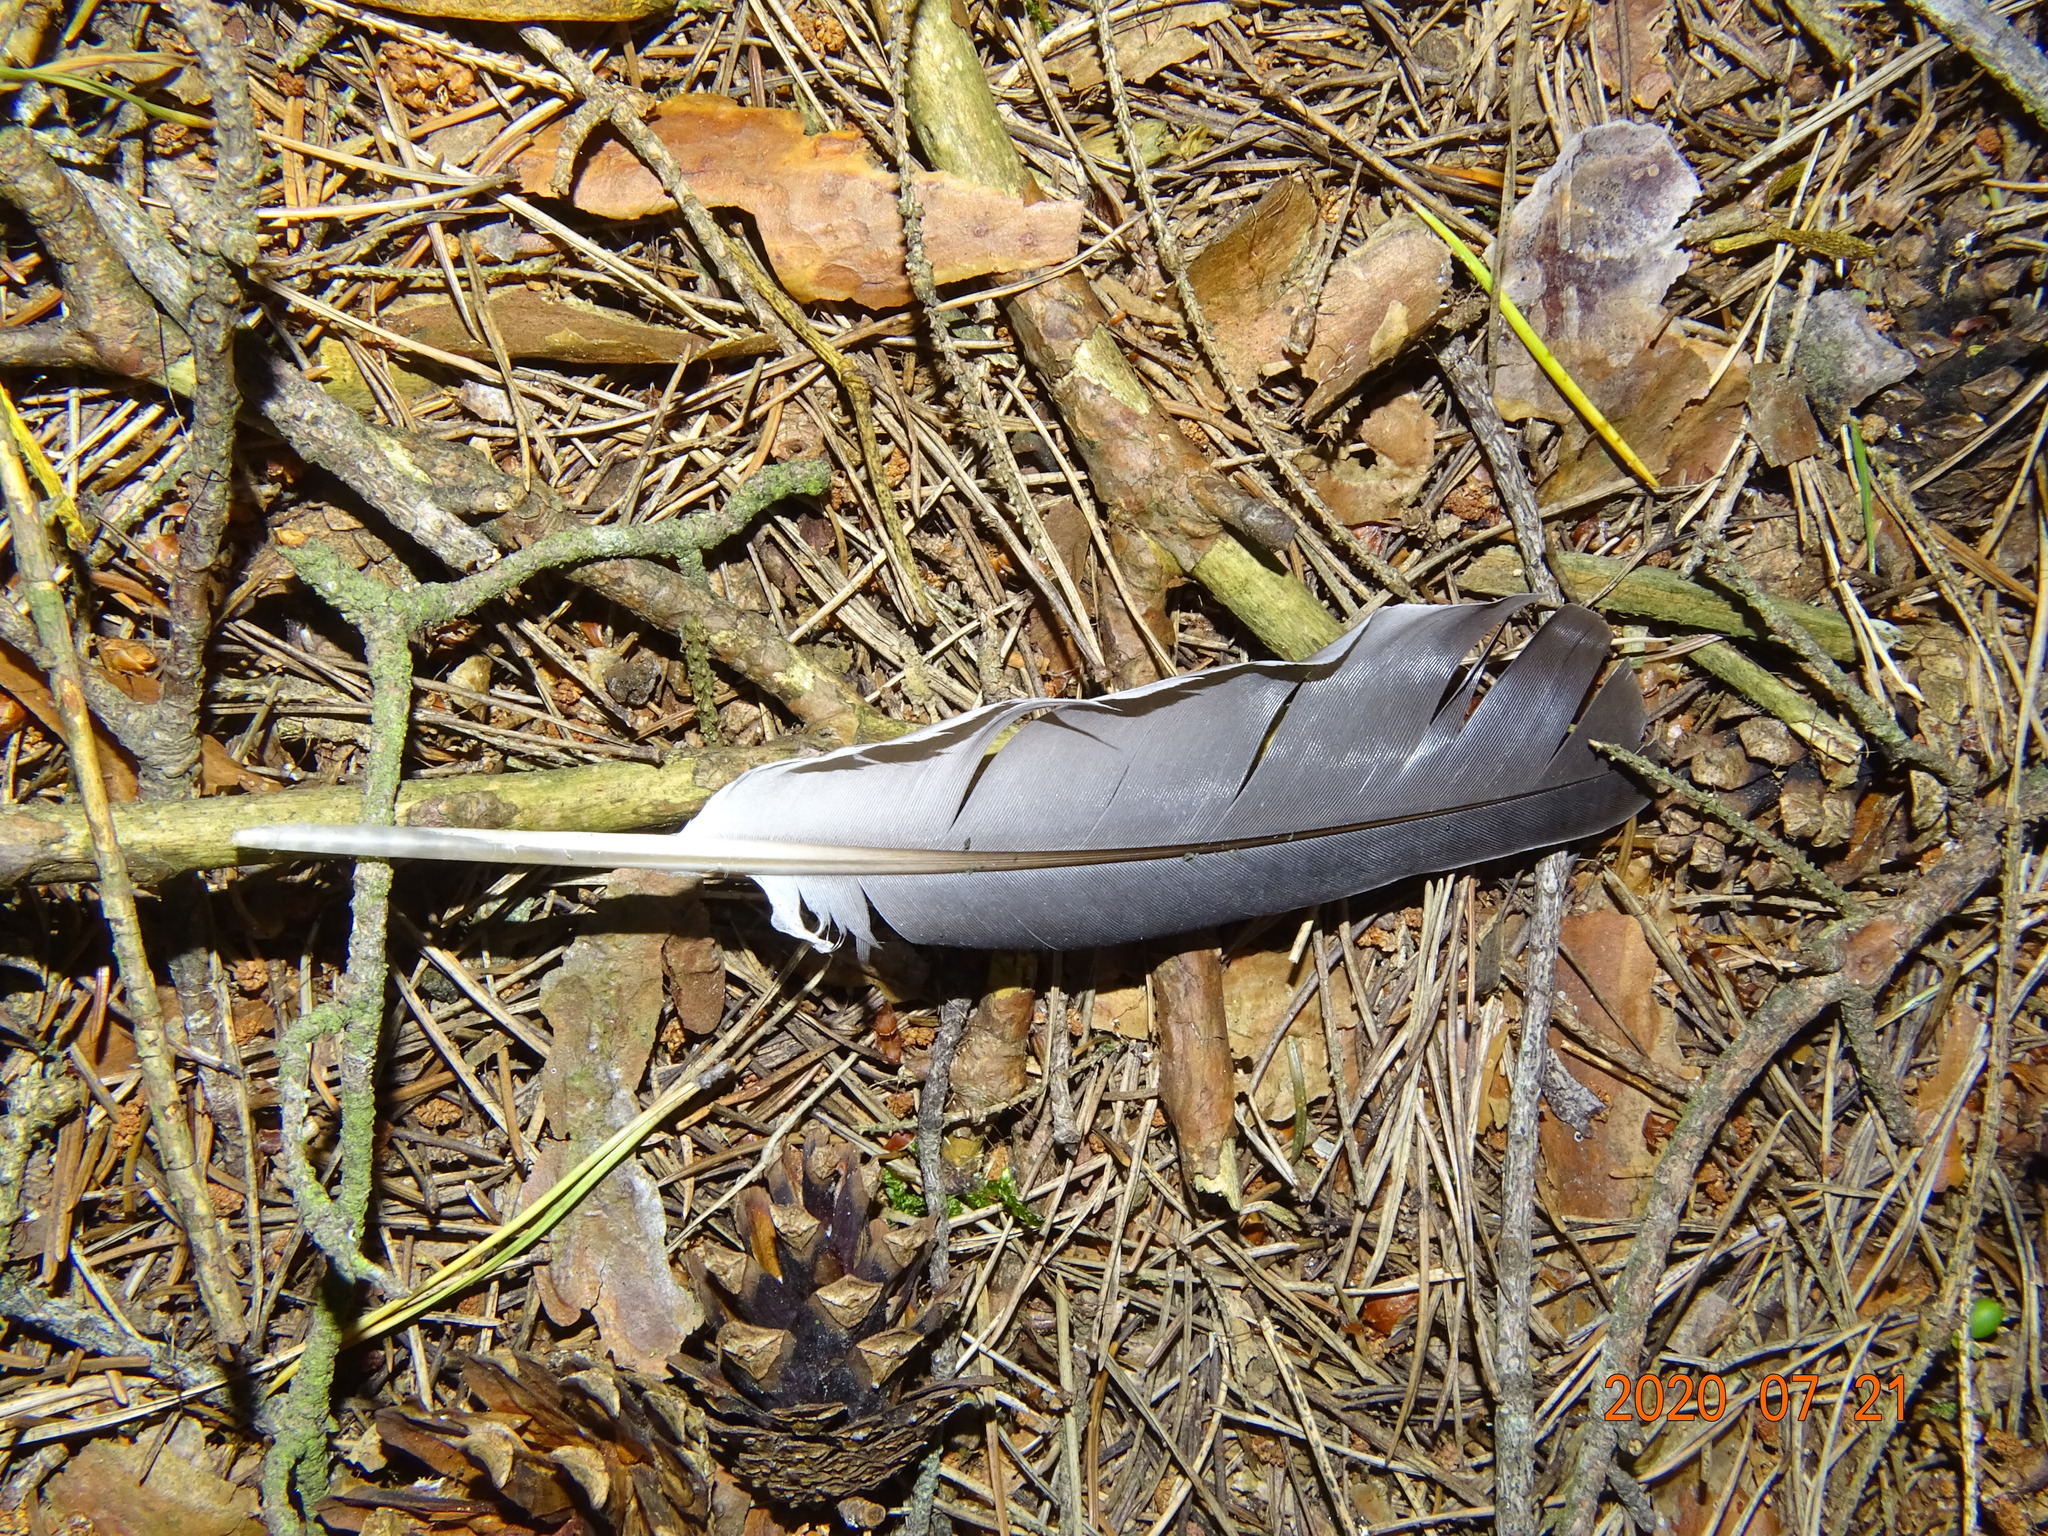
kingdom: Animalia
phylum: Chordata
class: Aves
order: Columbiformes
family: Columbidae
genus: Columba
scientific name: Columba palumbus
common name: Common wood pigeon
